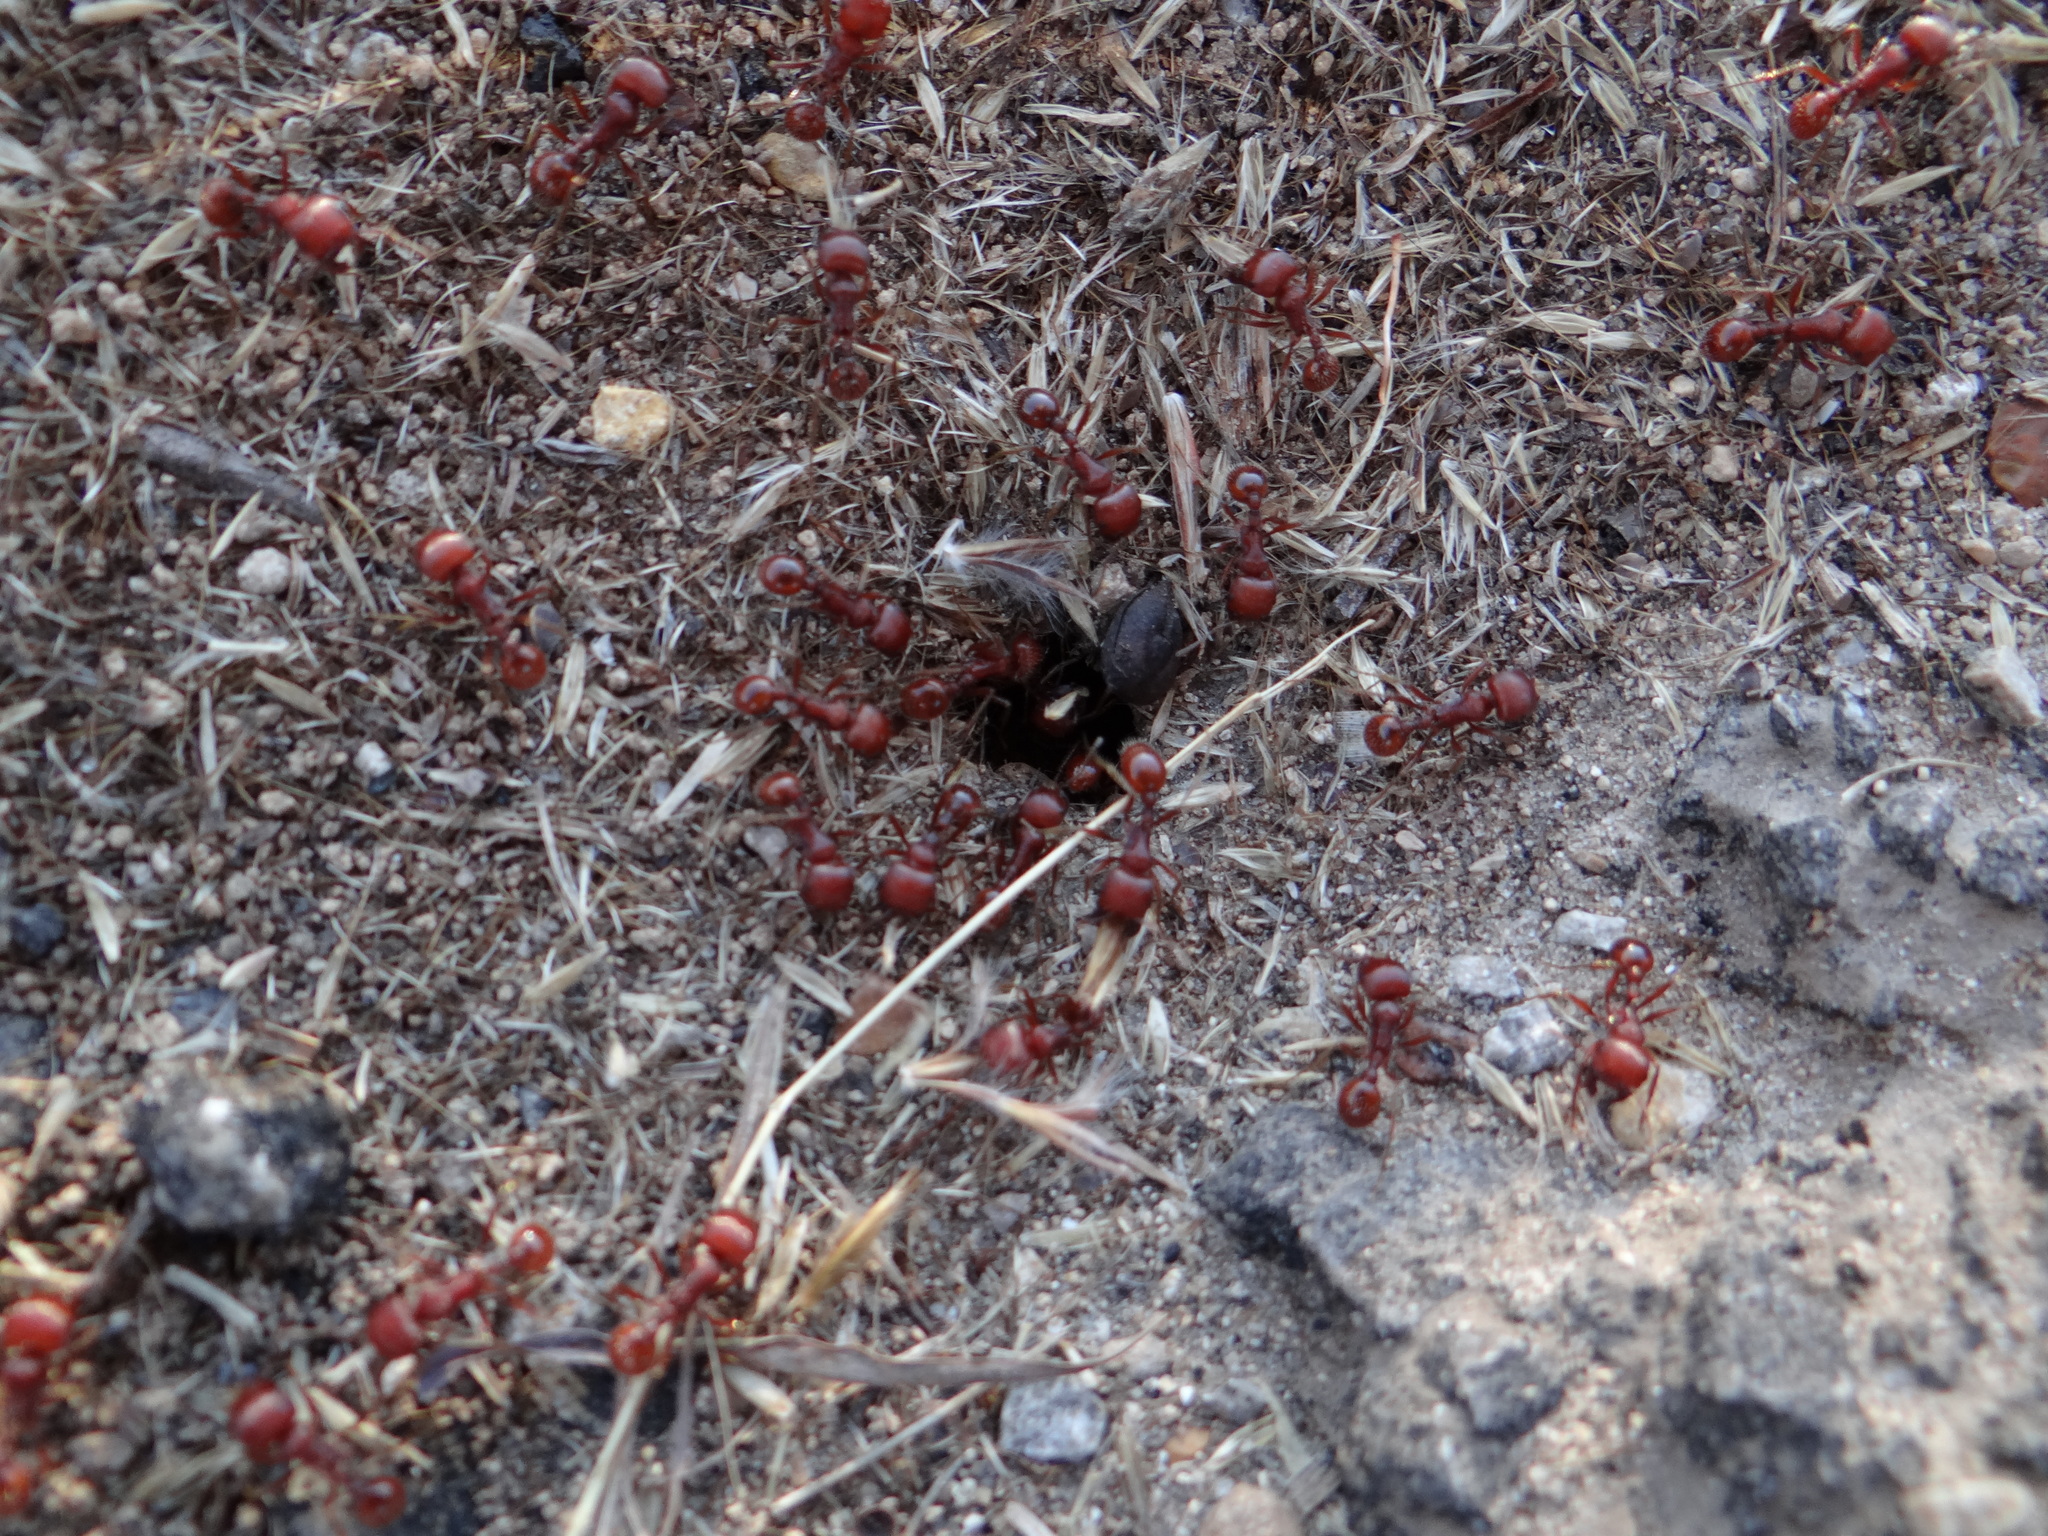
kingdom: Animalia
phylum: Arthropoda
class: Insecta
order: Hymenoptera
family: Formicidae
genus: Pogonomyrmex
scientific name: Pogonomyrmex barbatus
